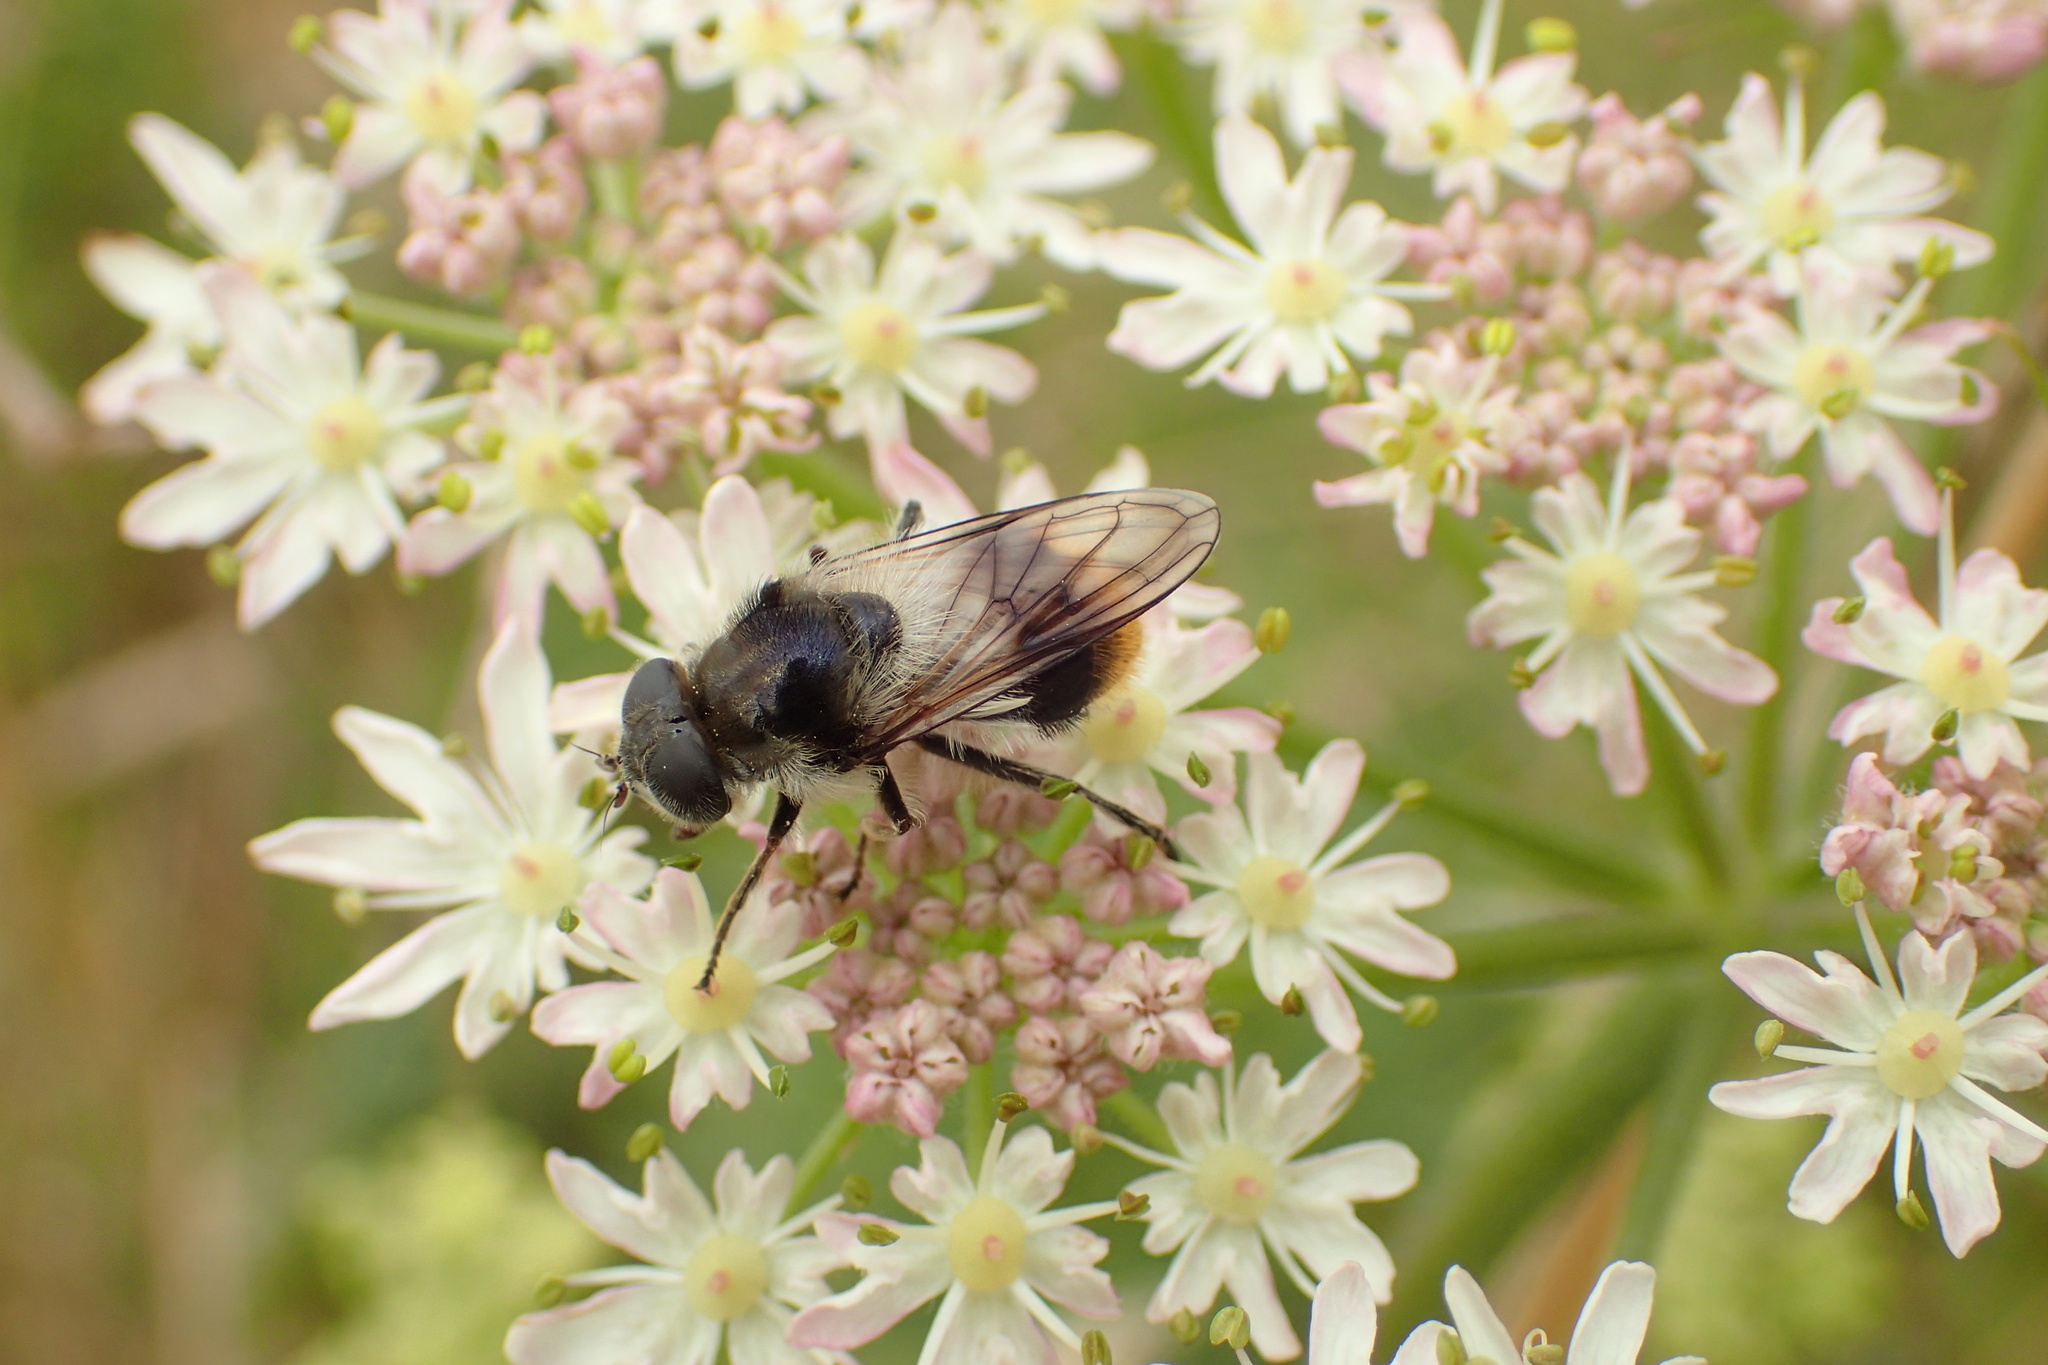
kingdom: Animalia
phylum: Arthropoda
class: Insecta
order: Diptera
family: Syrphidae
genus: Cheilosia
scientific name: Cheilosia illustrata
